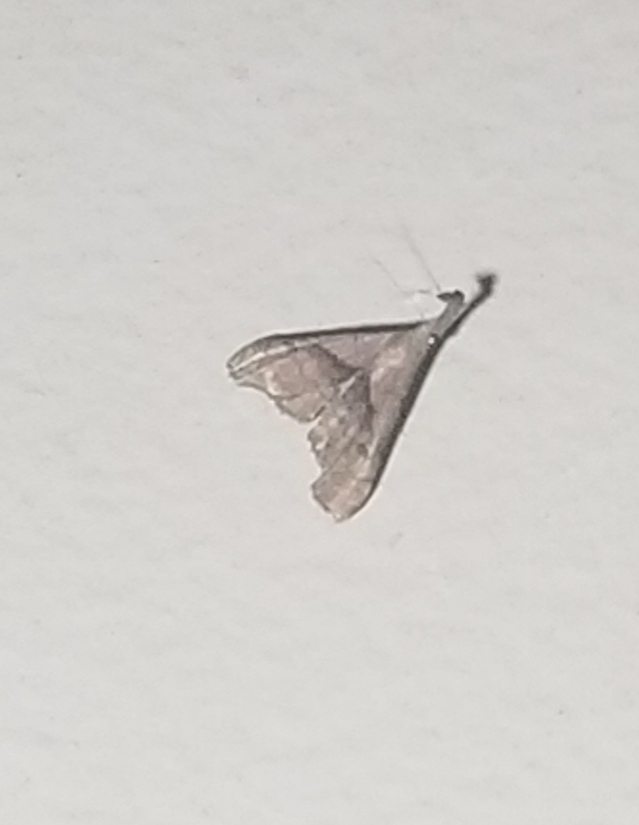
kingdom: Animalia
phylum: Arthropoda
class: Insecta
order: Lepidoptera
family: Erebidae
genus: Palthis
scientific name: Palthis angulalis
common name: Dark-spotted palthis moth
